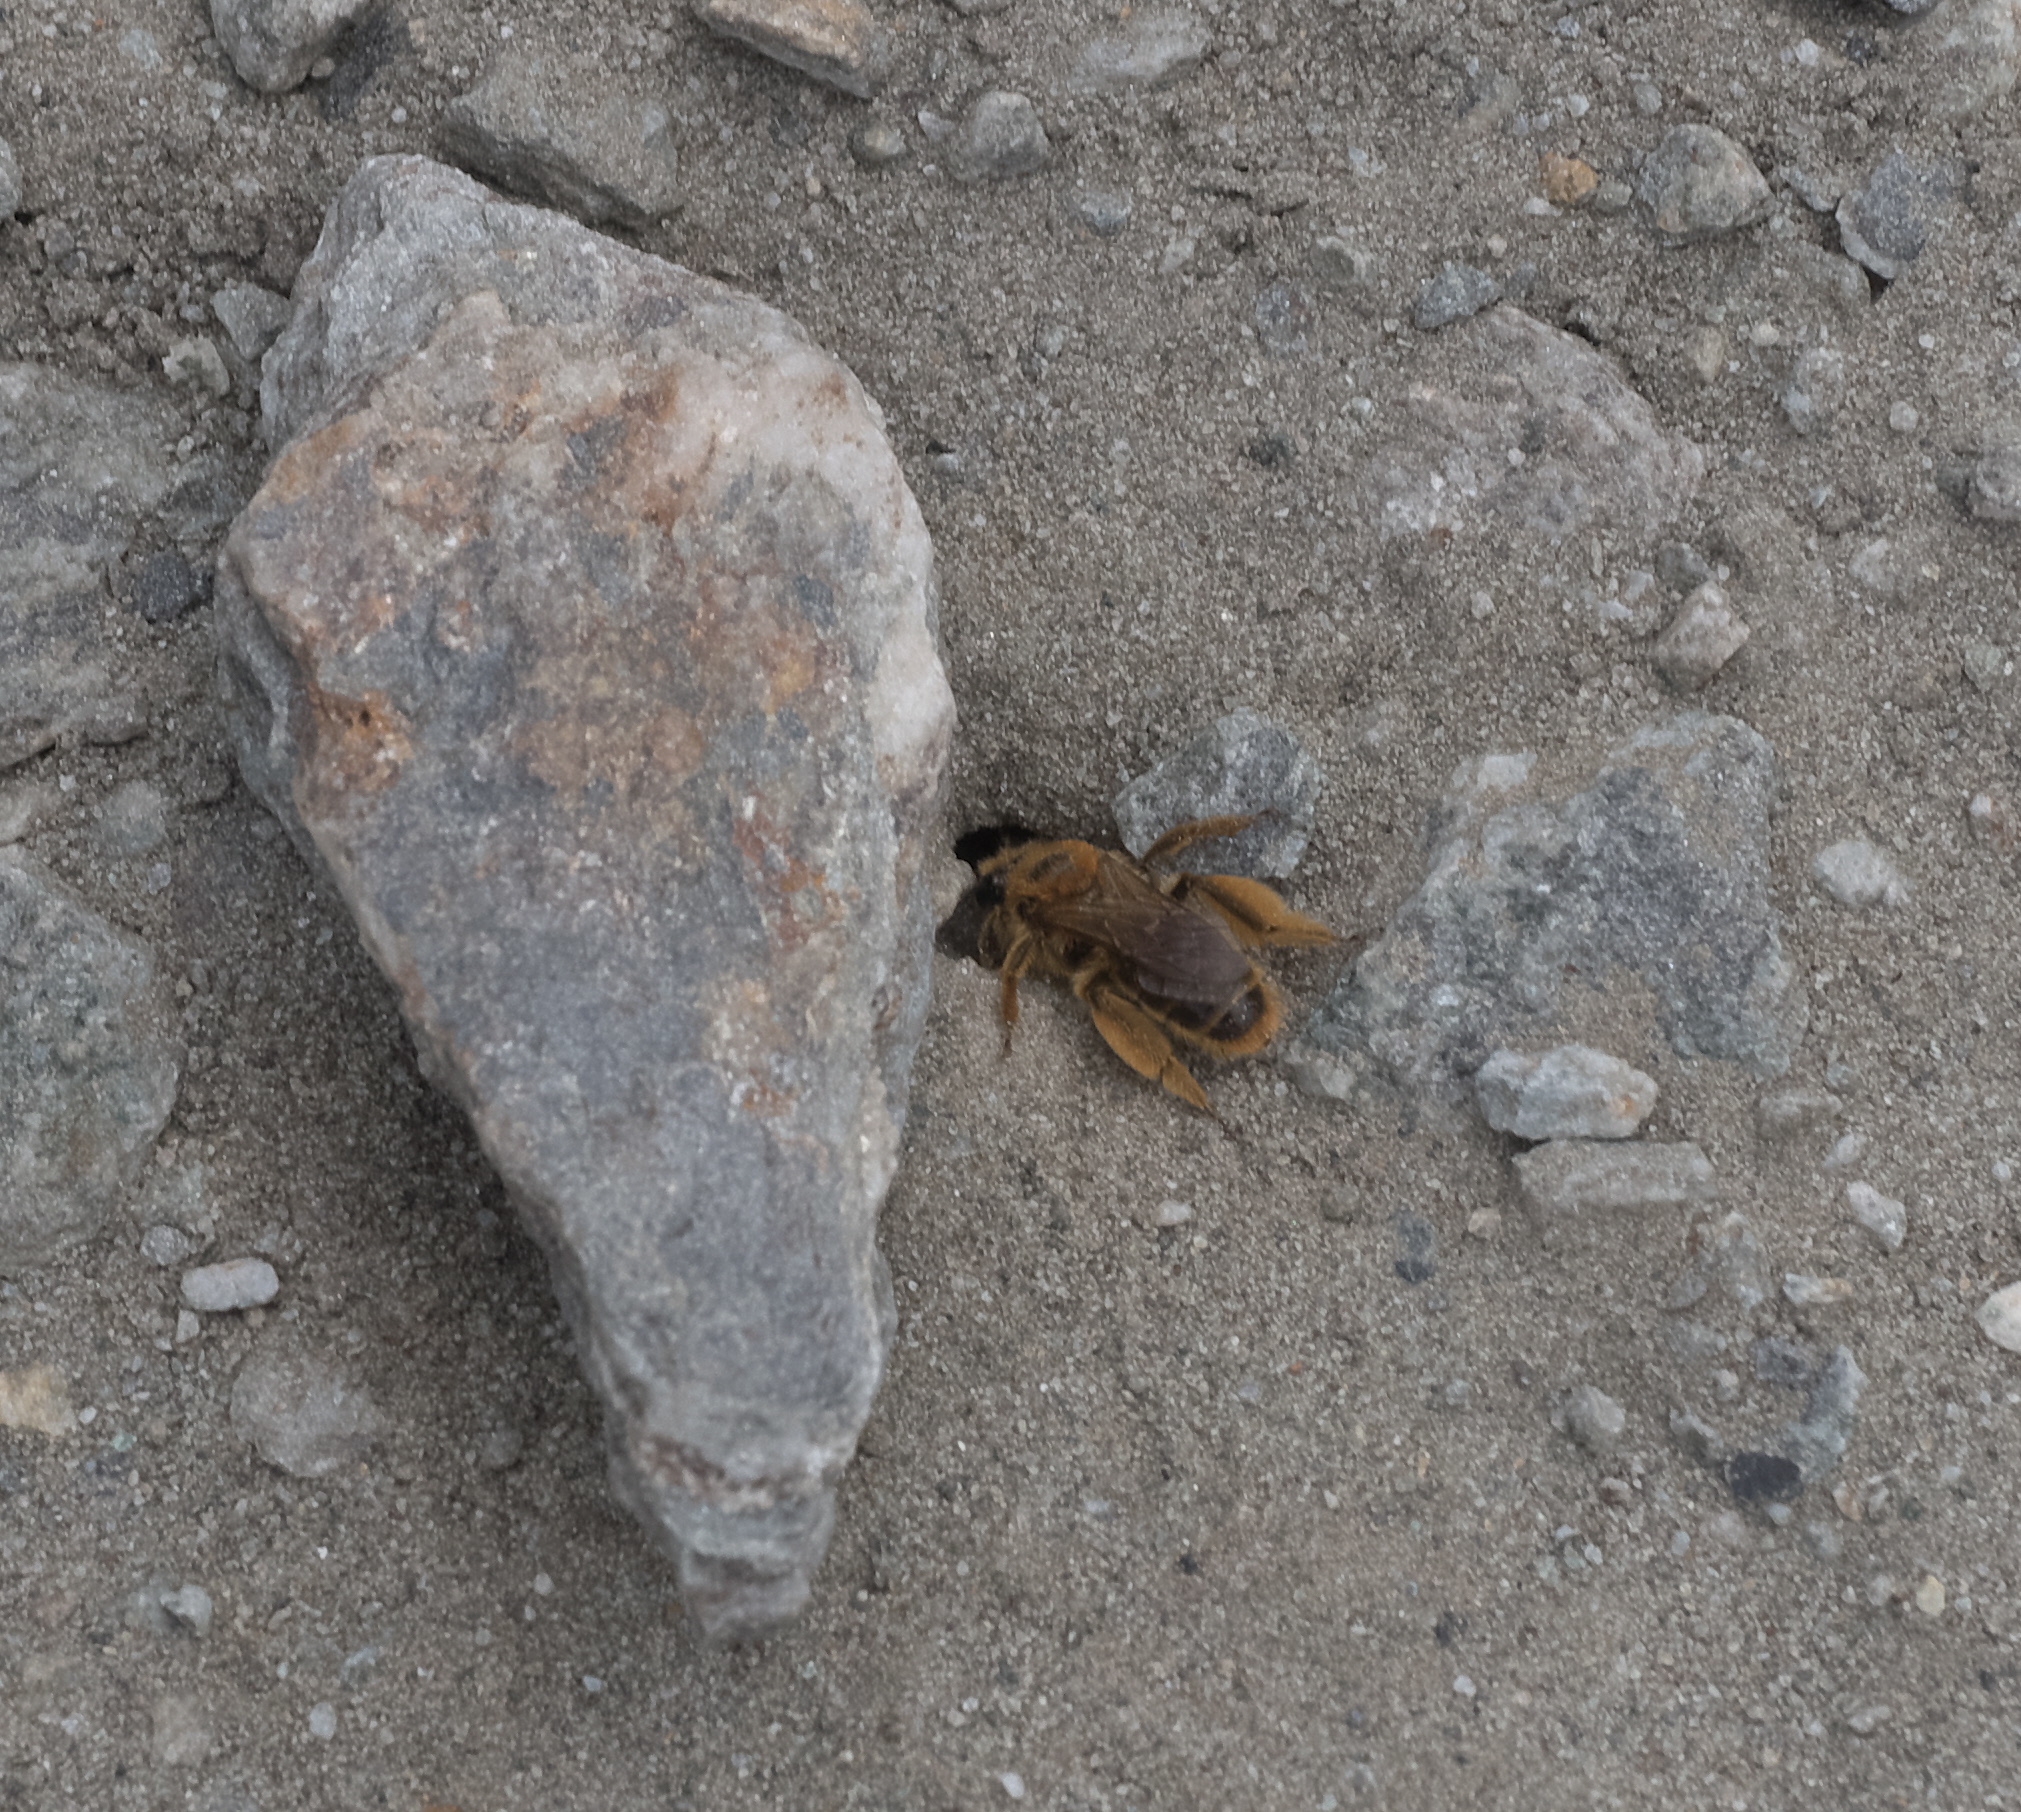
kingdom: Animalia
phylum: Arthropoda
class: Insecta
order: Hymenoptera
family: Colletidae
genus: Leioproctus
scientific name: Leioproctus fulvescens
